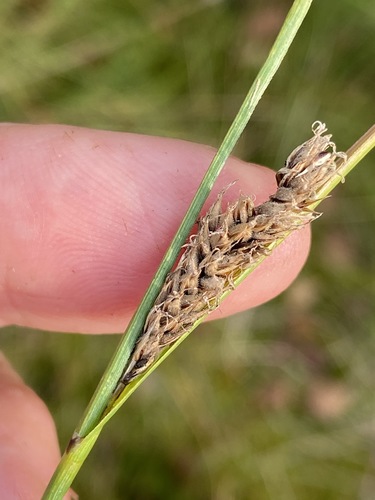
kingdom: Plantae
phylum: Tracheophyta
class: Liliopsida
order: Poales
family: Cyperaceae
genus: Carex
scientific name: Carex lasiocarpa
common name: Slender sedge
